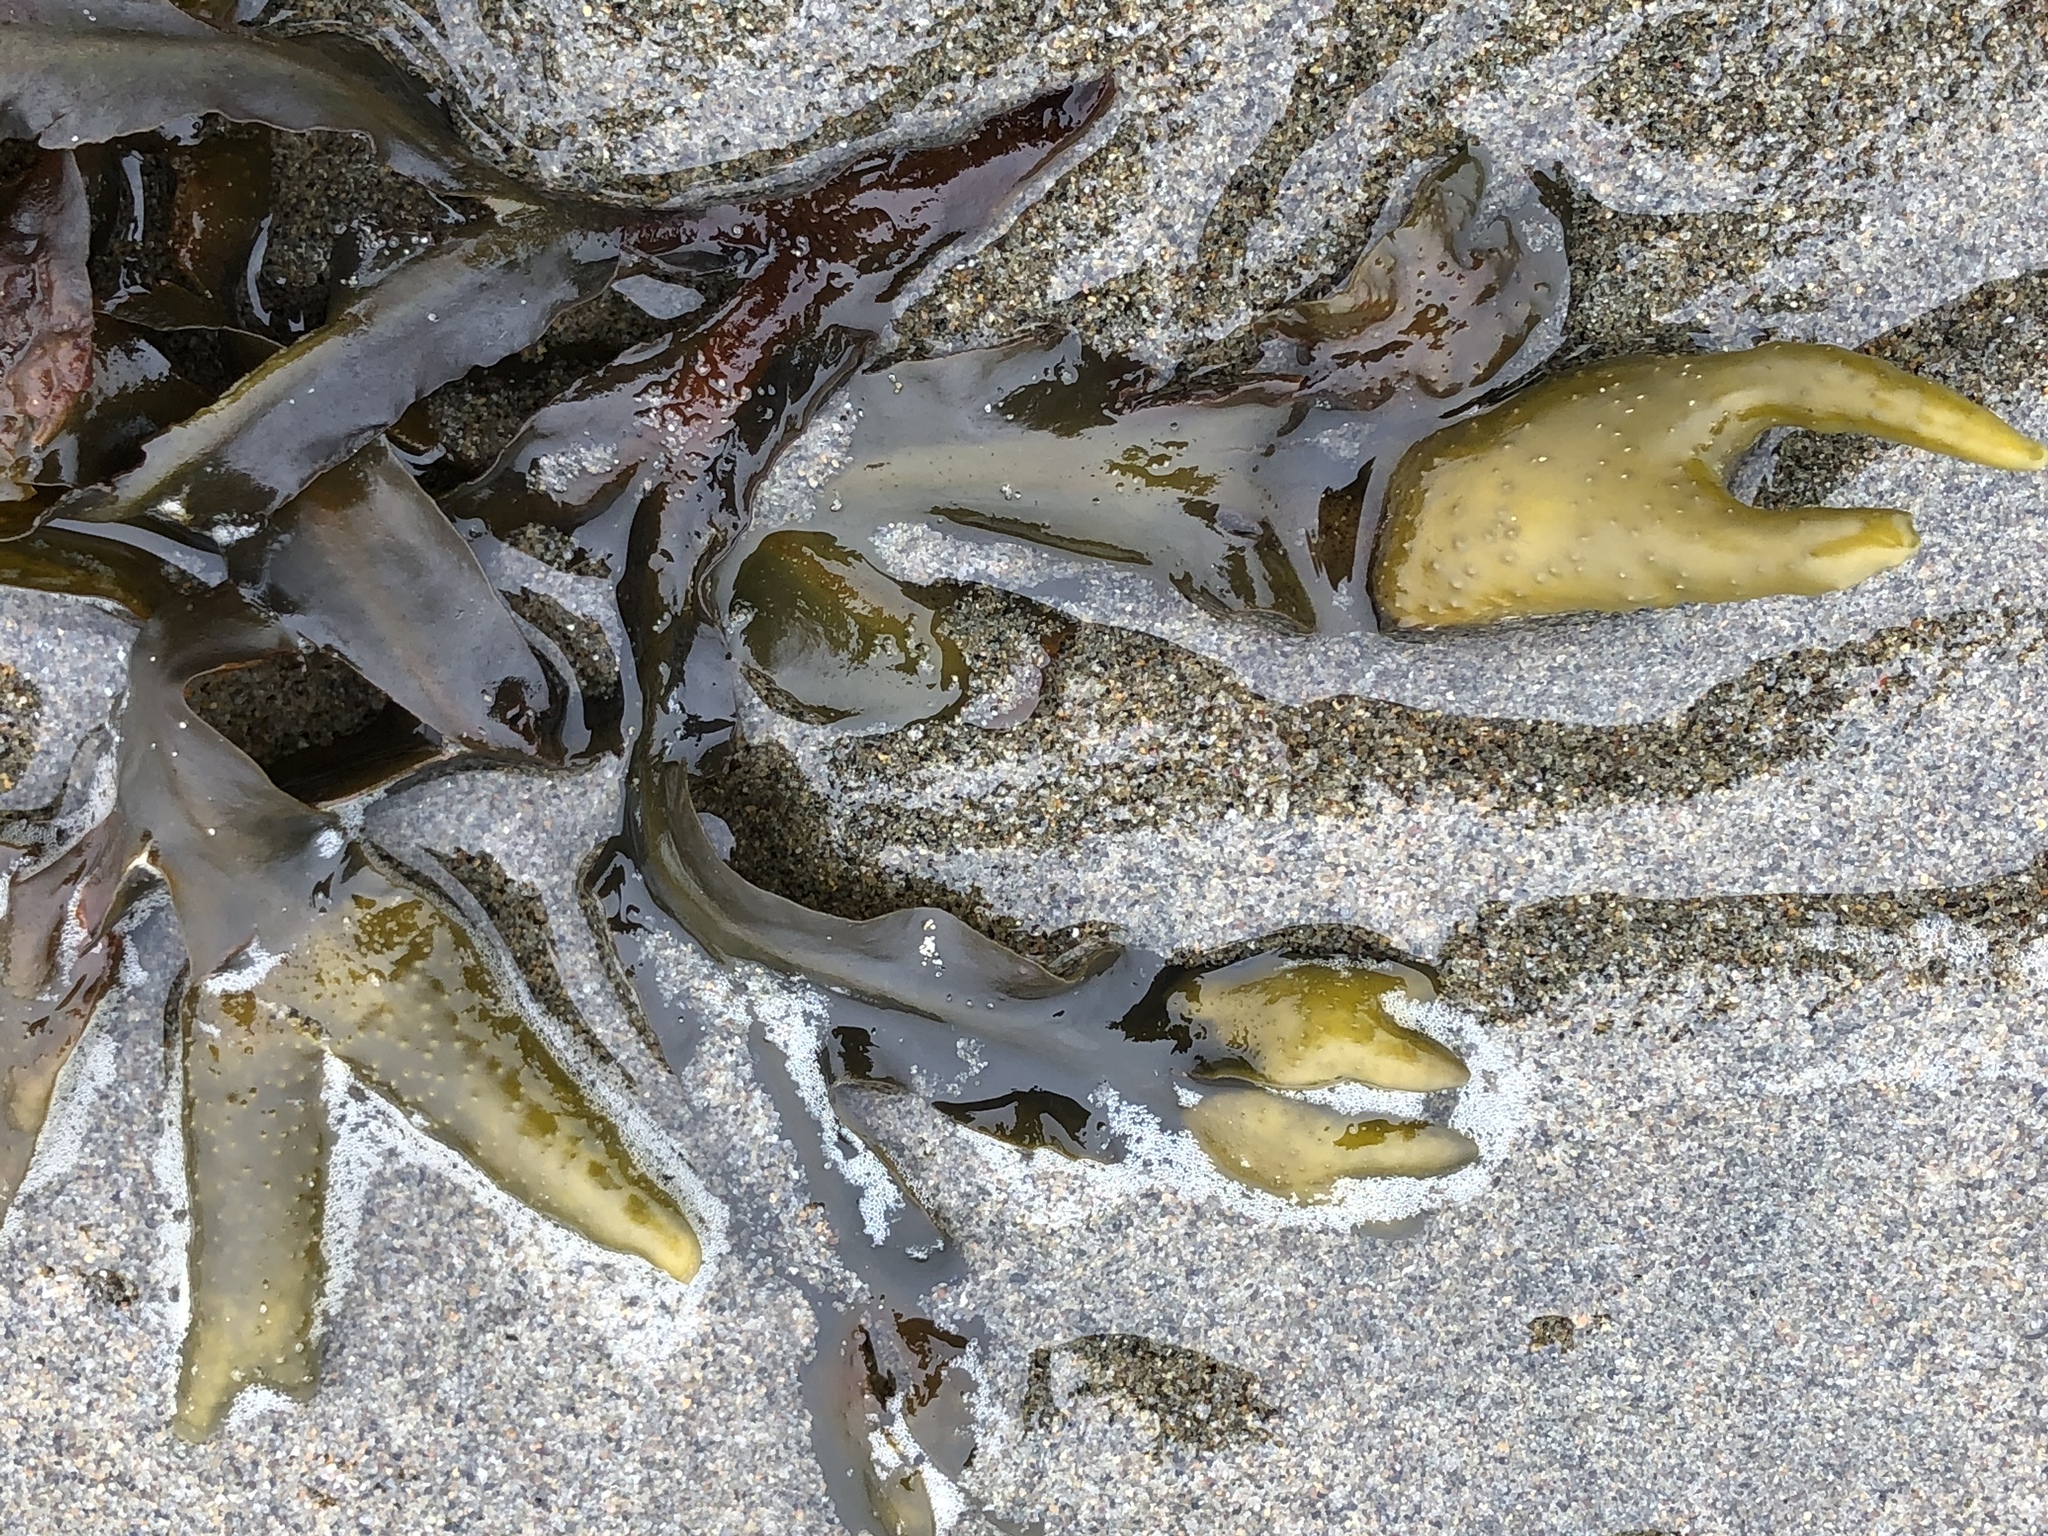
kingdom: Chromista
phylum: Ochrophyta
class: Phaeophyceae
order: Fucales
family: Fucaceae
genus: Fucus
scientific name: Fucus distichus
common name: Rockweed
